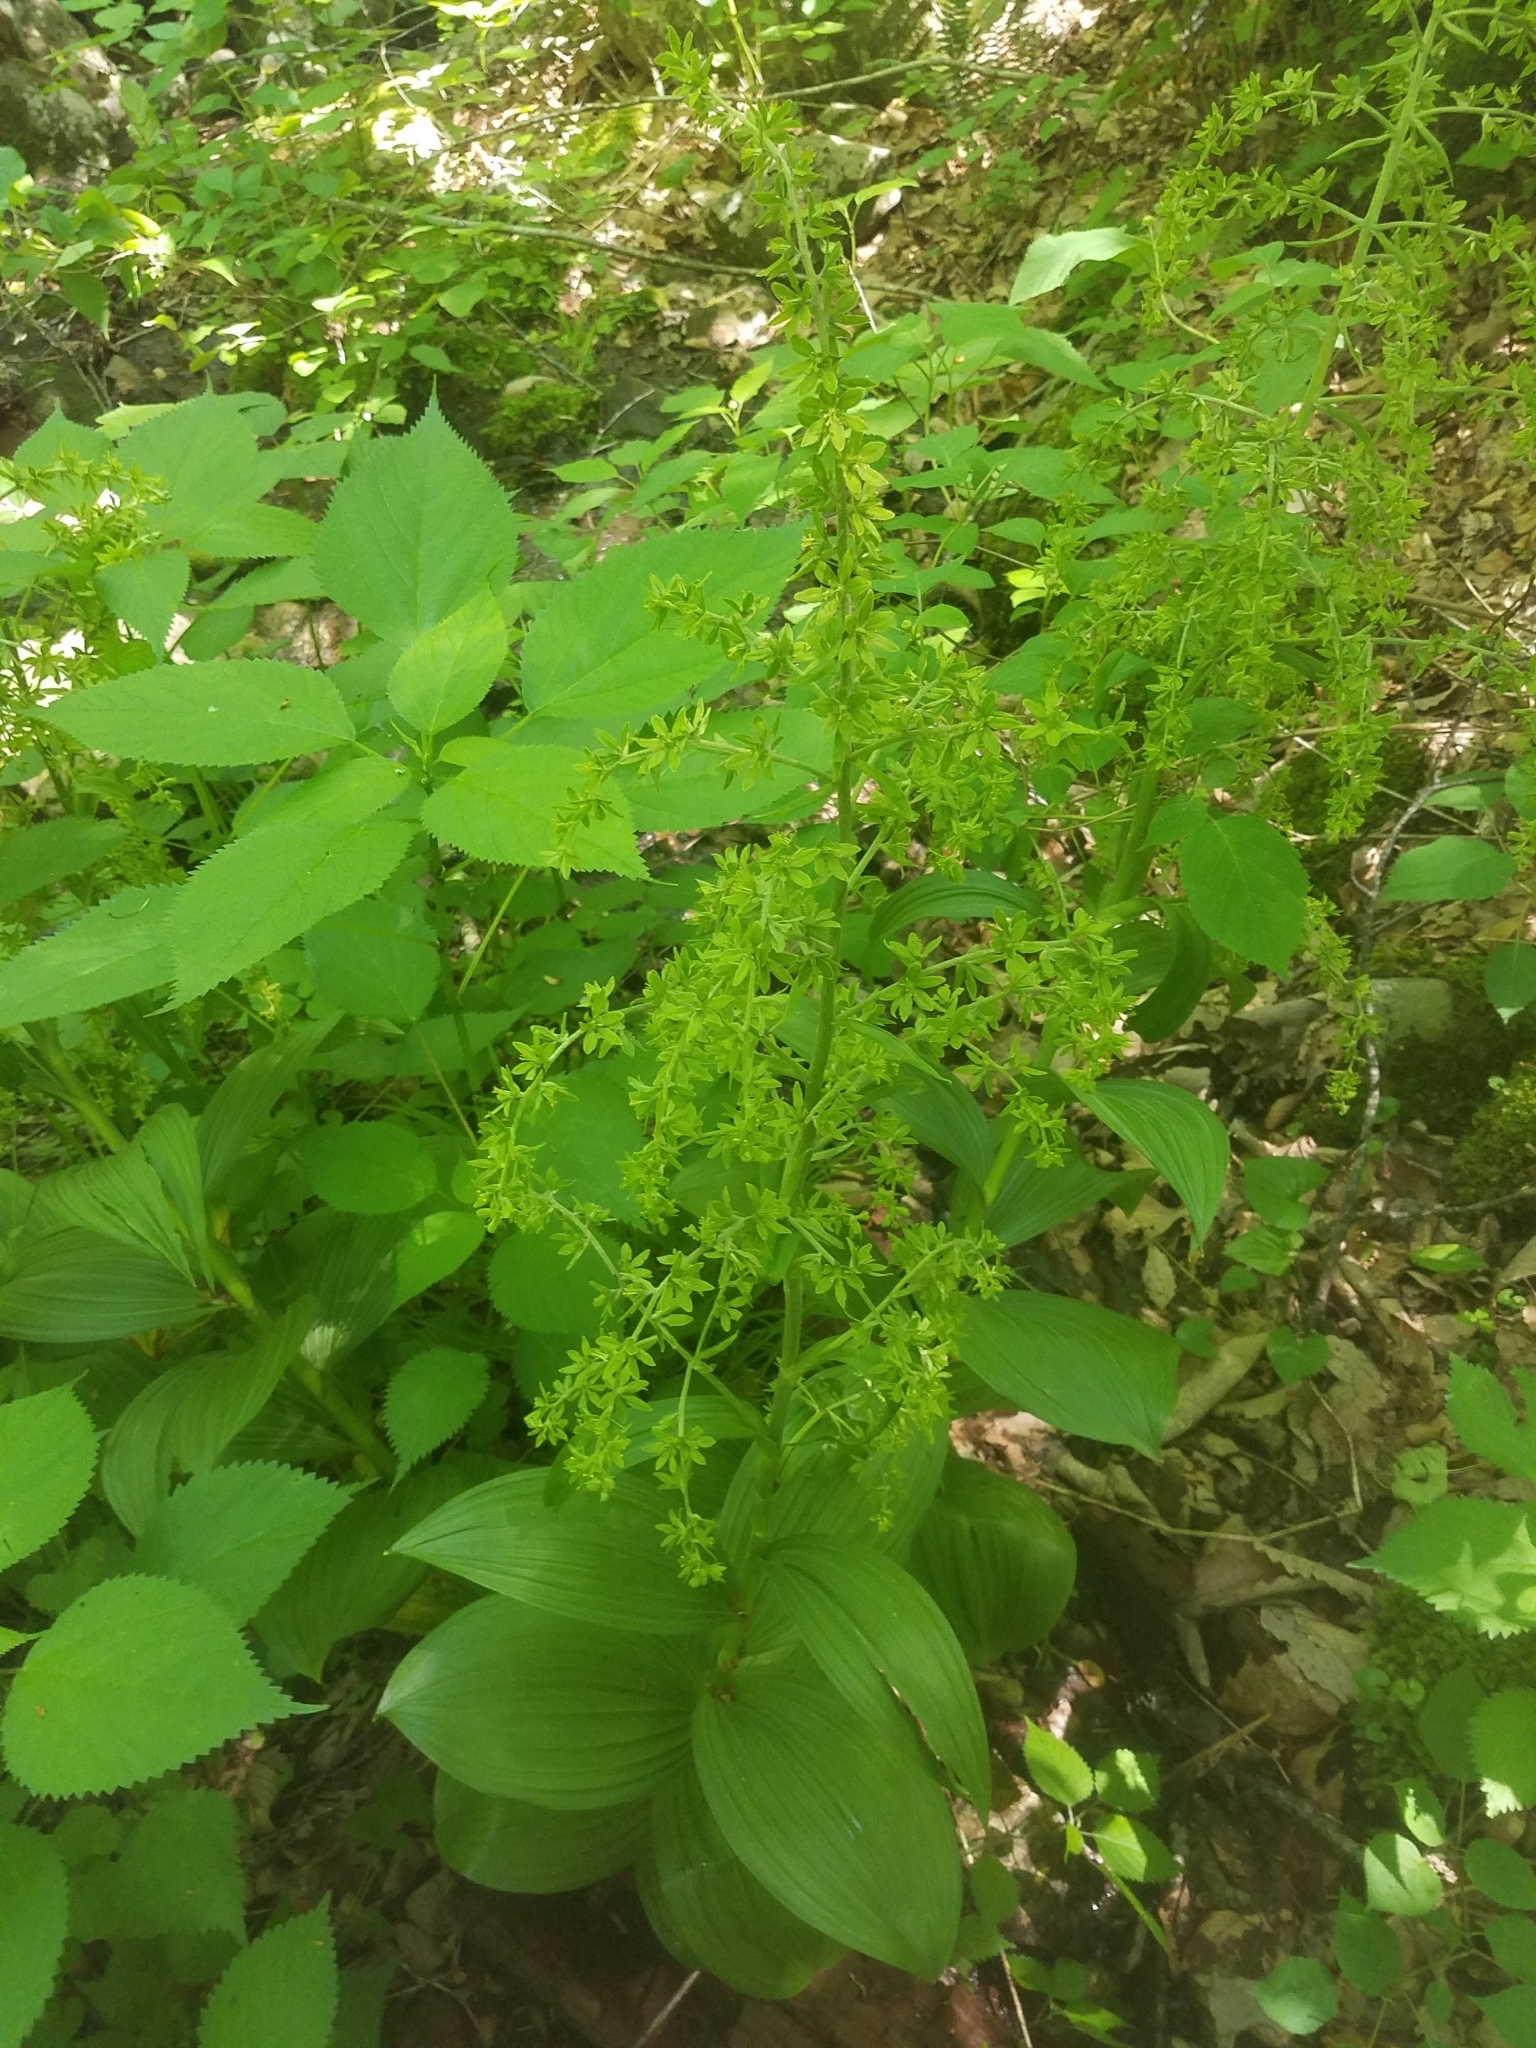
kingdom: Plantae
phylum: Tracheophyta
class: Liliopsida
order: Liliales
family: Melanthiaceae
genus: Veratrum
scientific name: Veratrum viride
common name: American false hellebore
